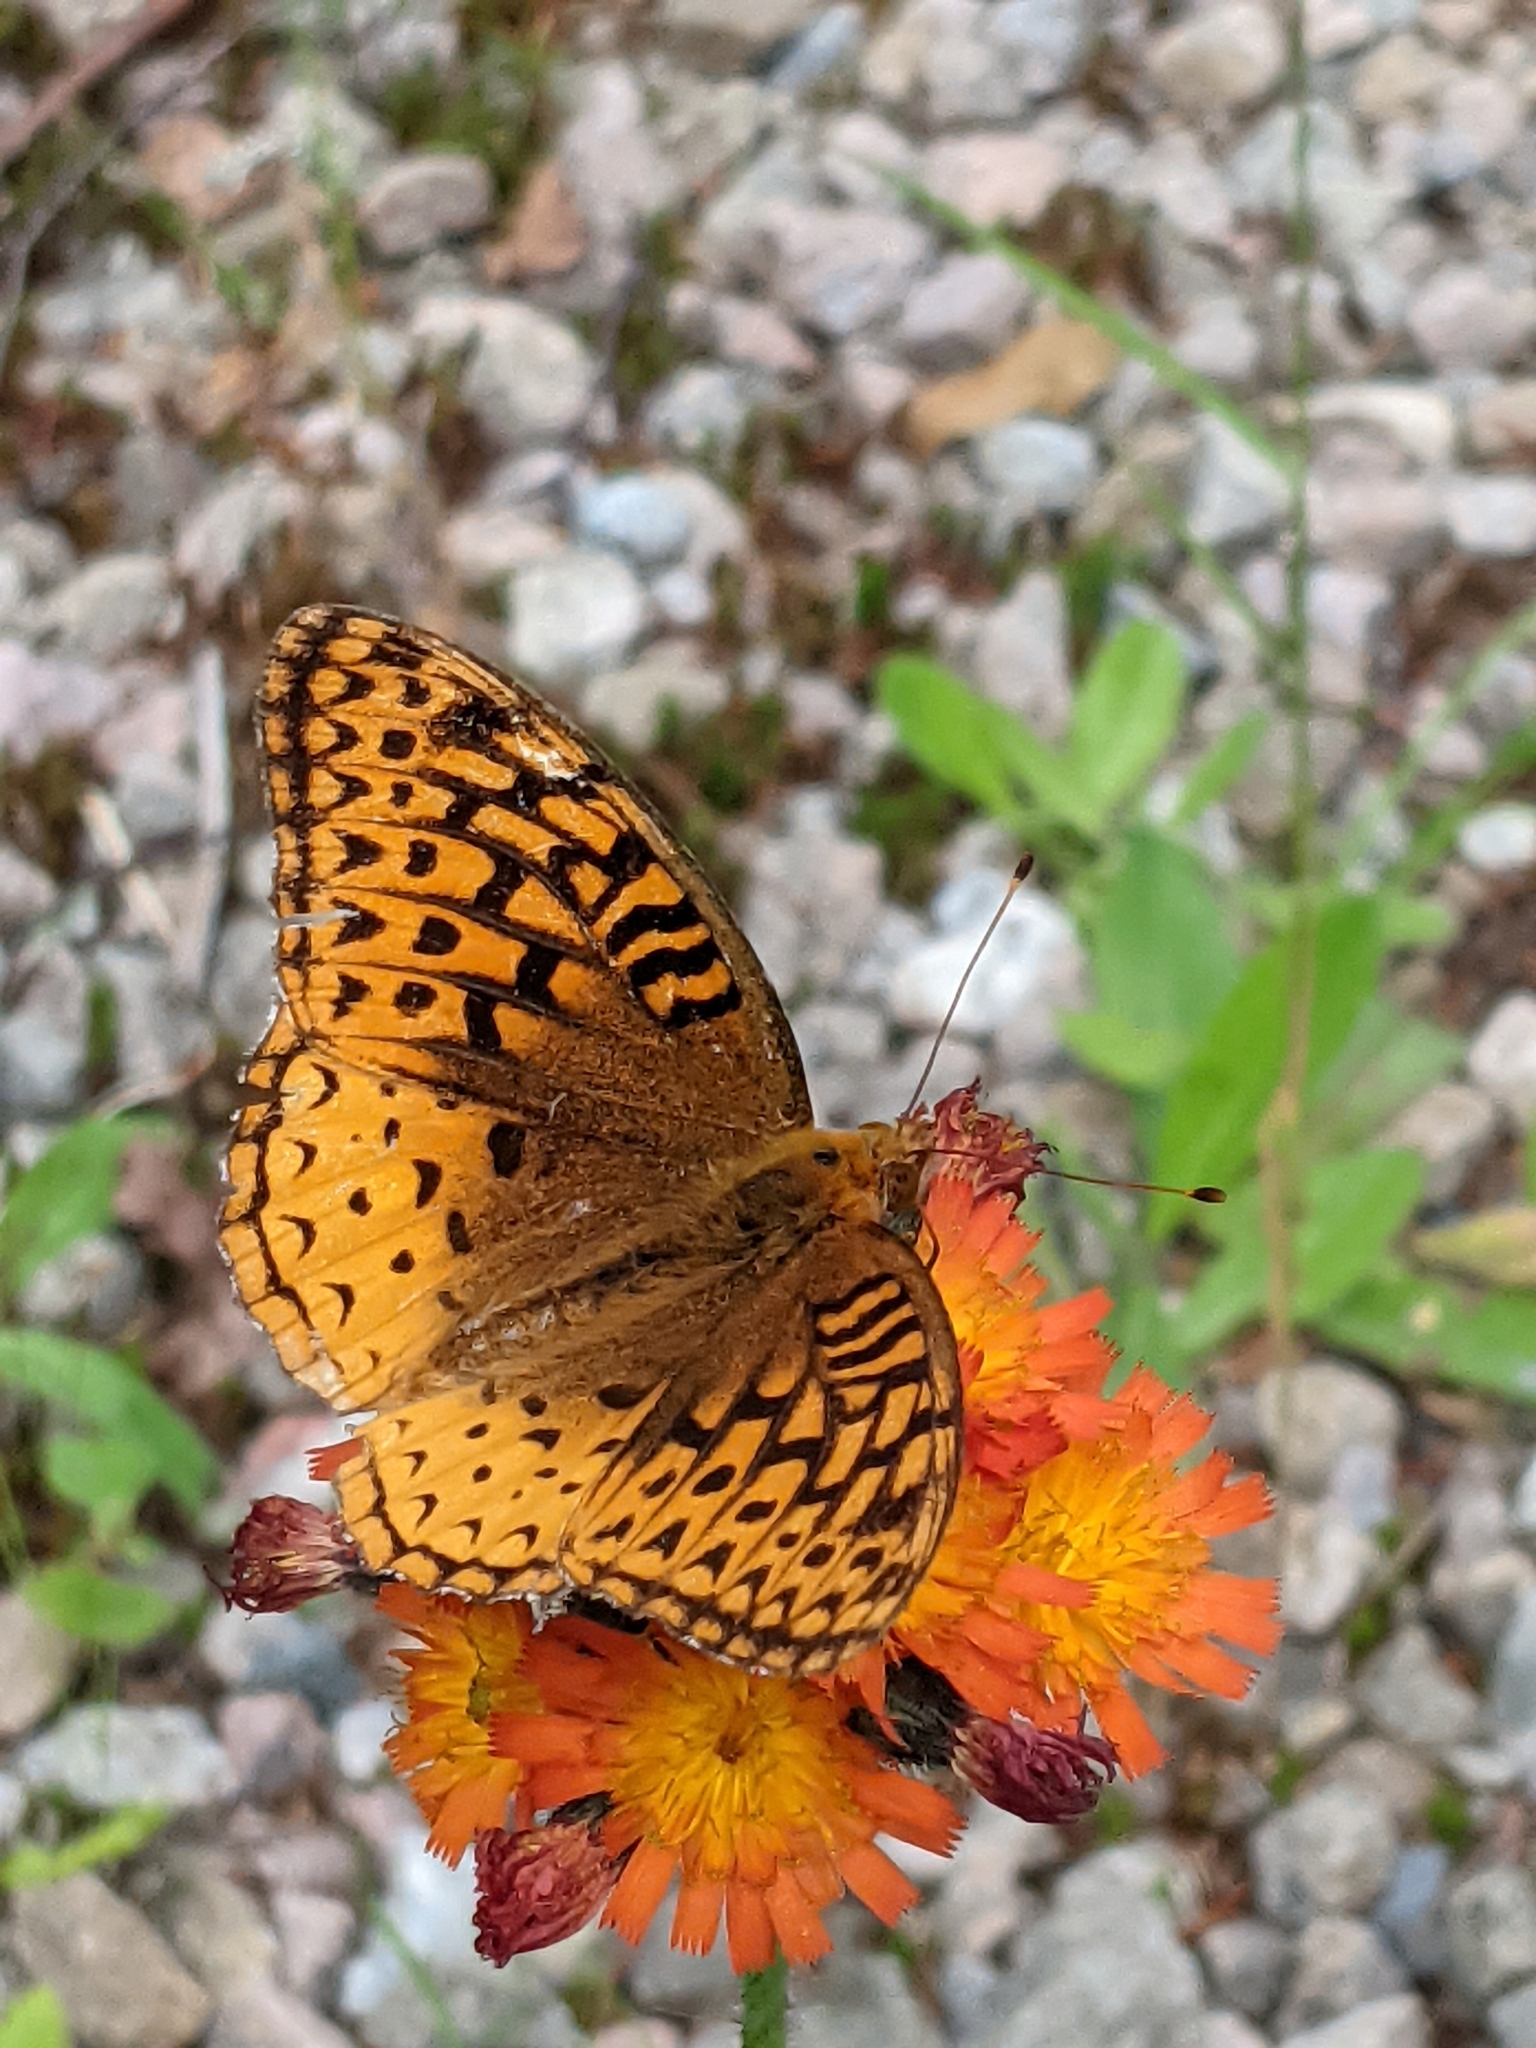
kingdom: Animalia
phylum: Arthropoda
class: Insecta
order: Lepidoptera
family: Nymphalidae
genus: Speyeria
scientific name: Speyeria cybele
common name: Great spangled fritillary
